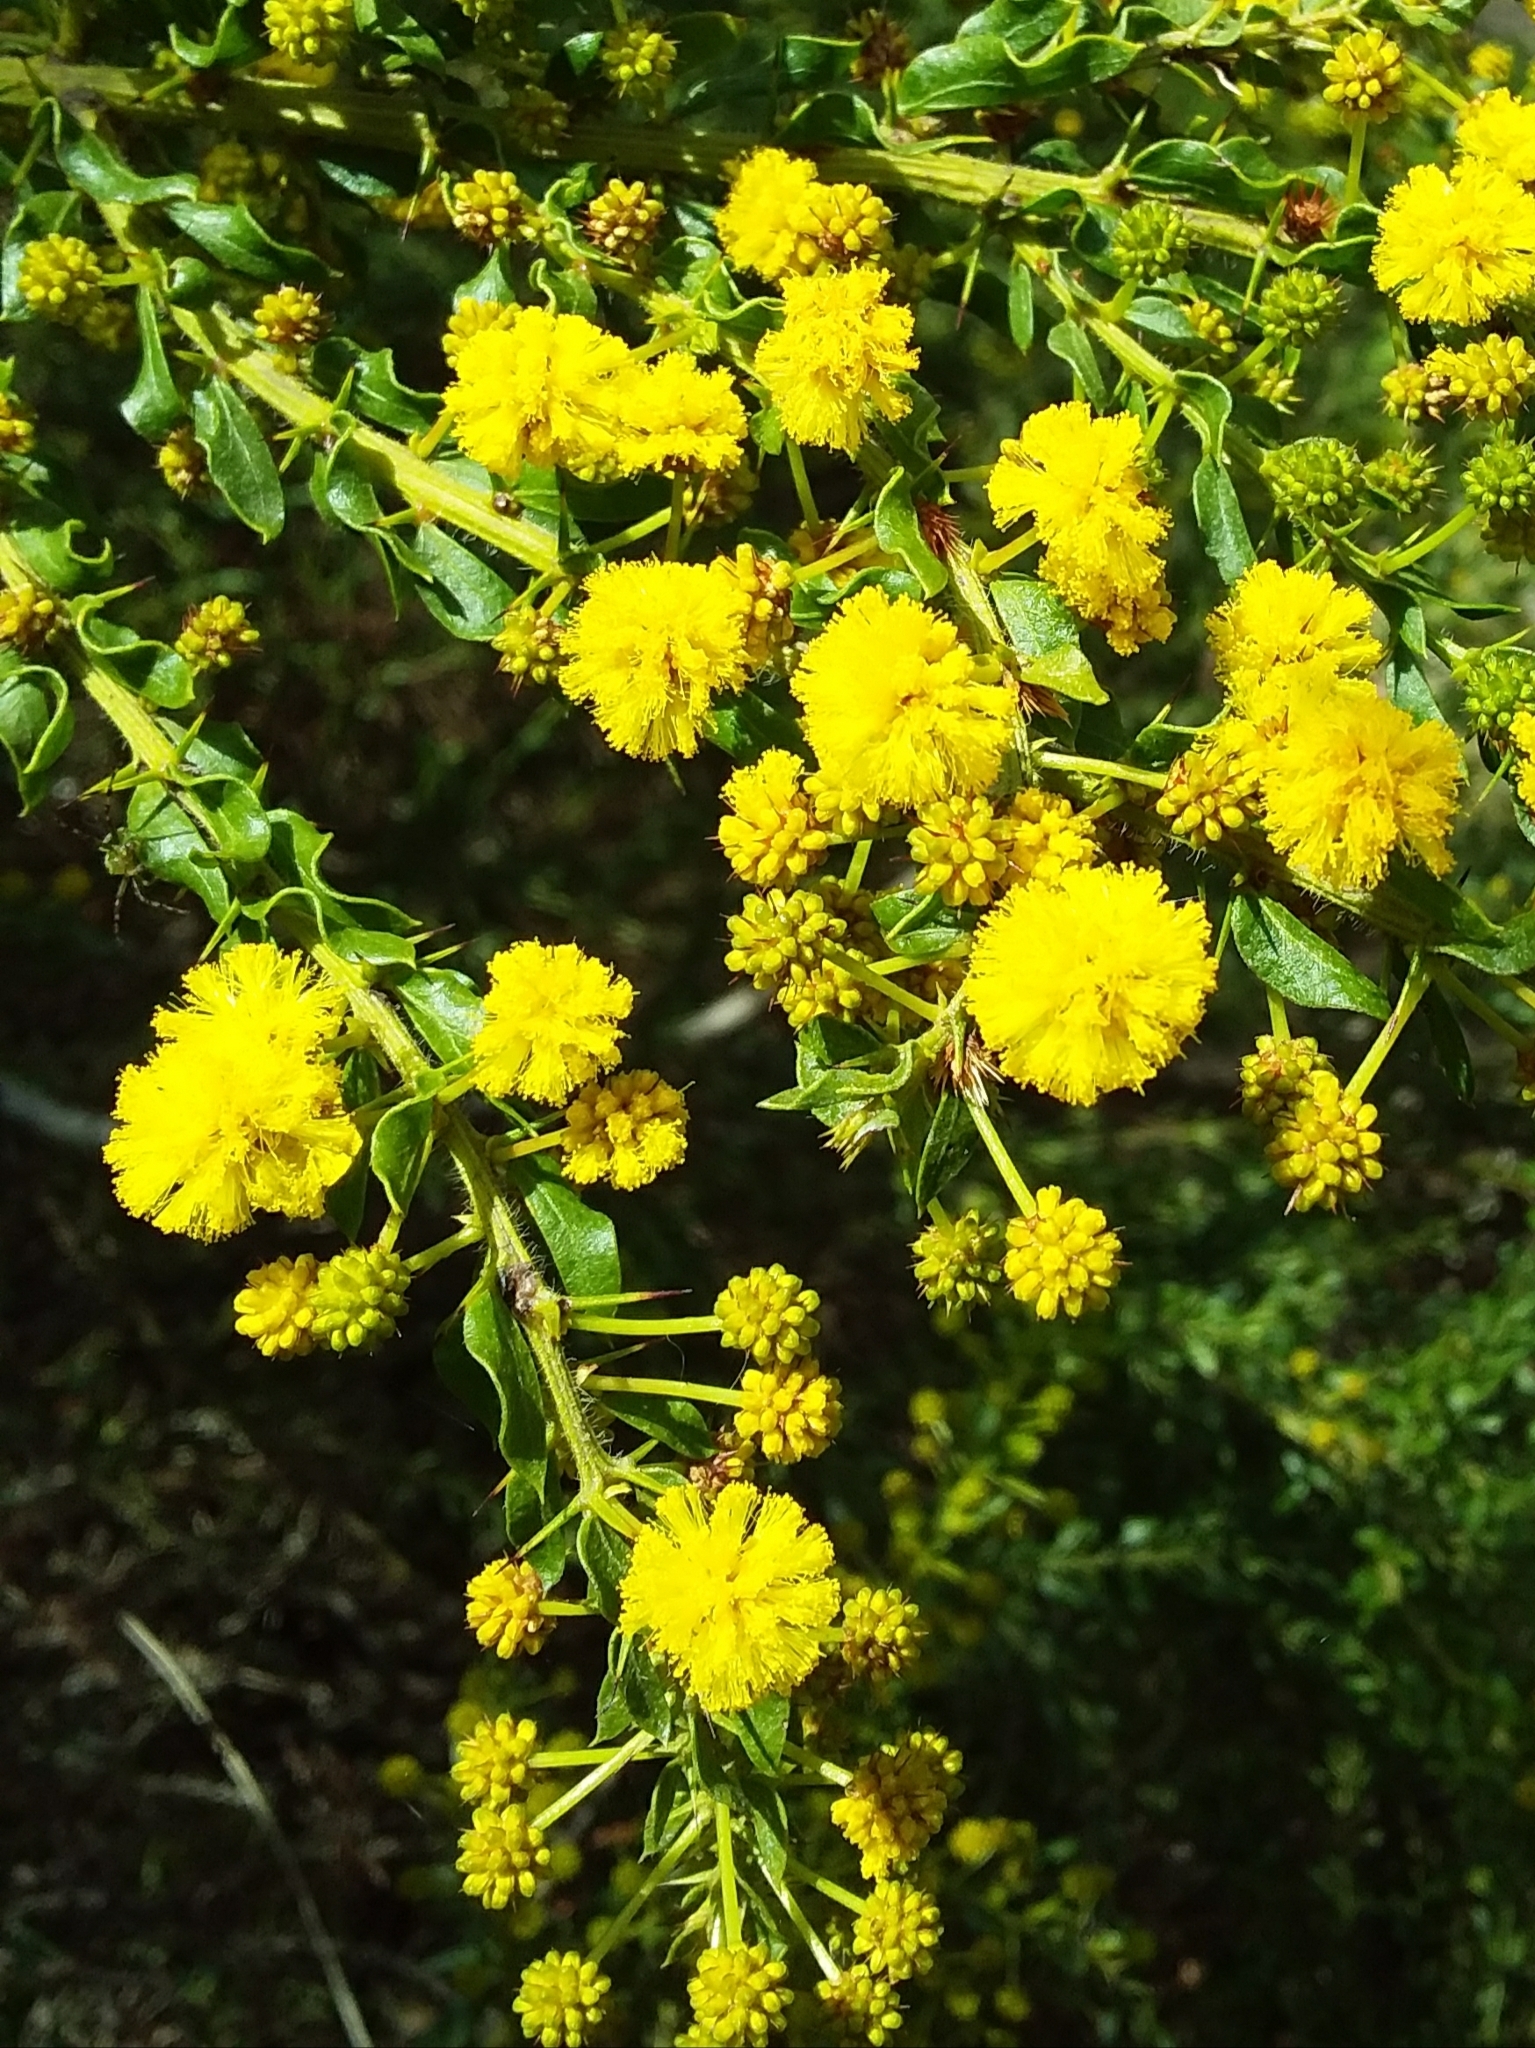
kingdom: Plantae
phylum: Tracheophyta
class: Magnoliopsida
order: Fabales
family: Fabaceae
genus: Acacia
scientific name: Acacia paradoxa
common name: Paradox acacia
